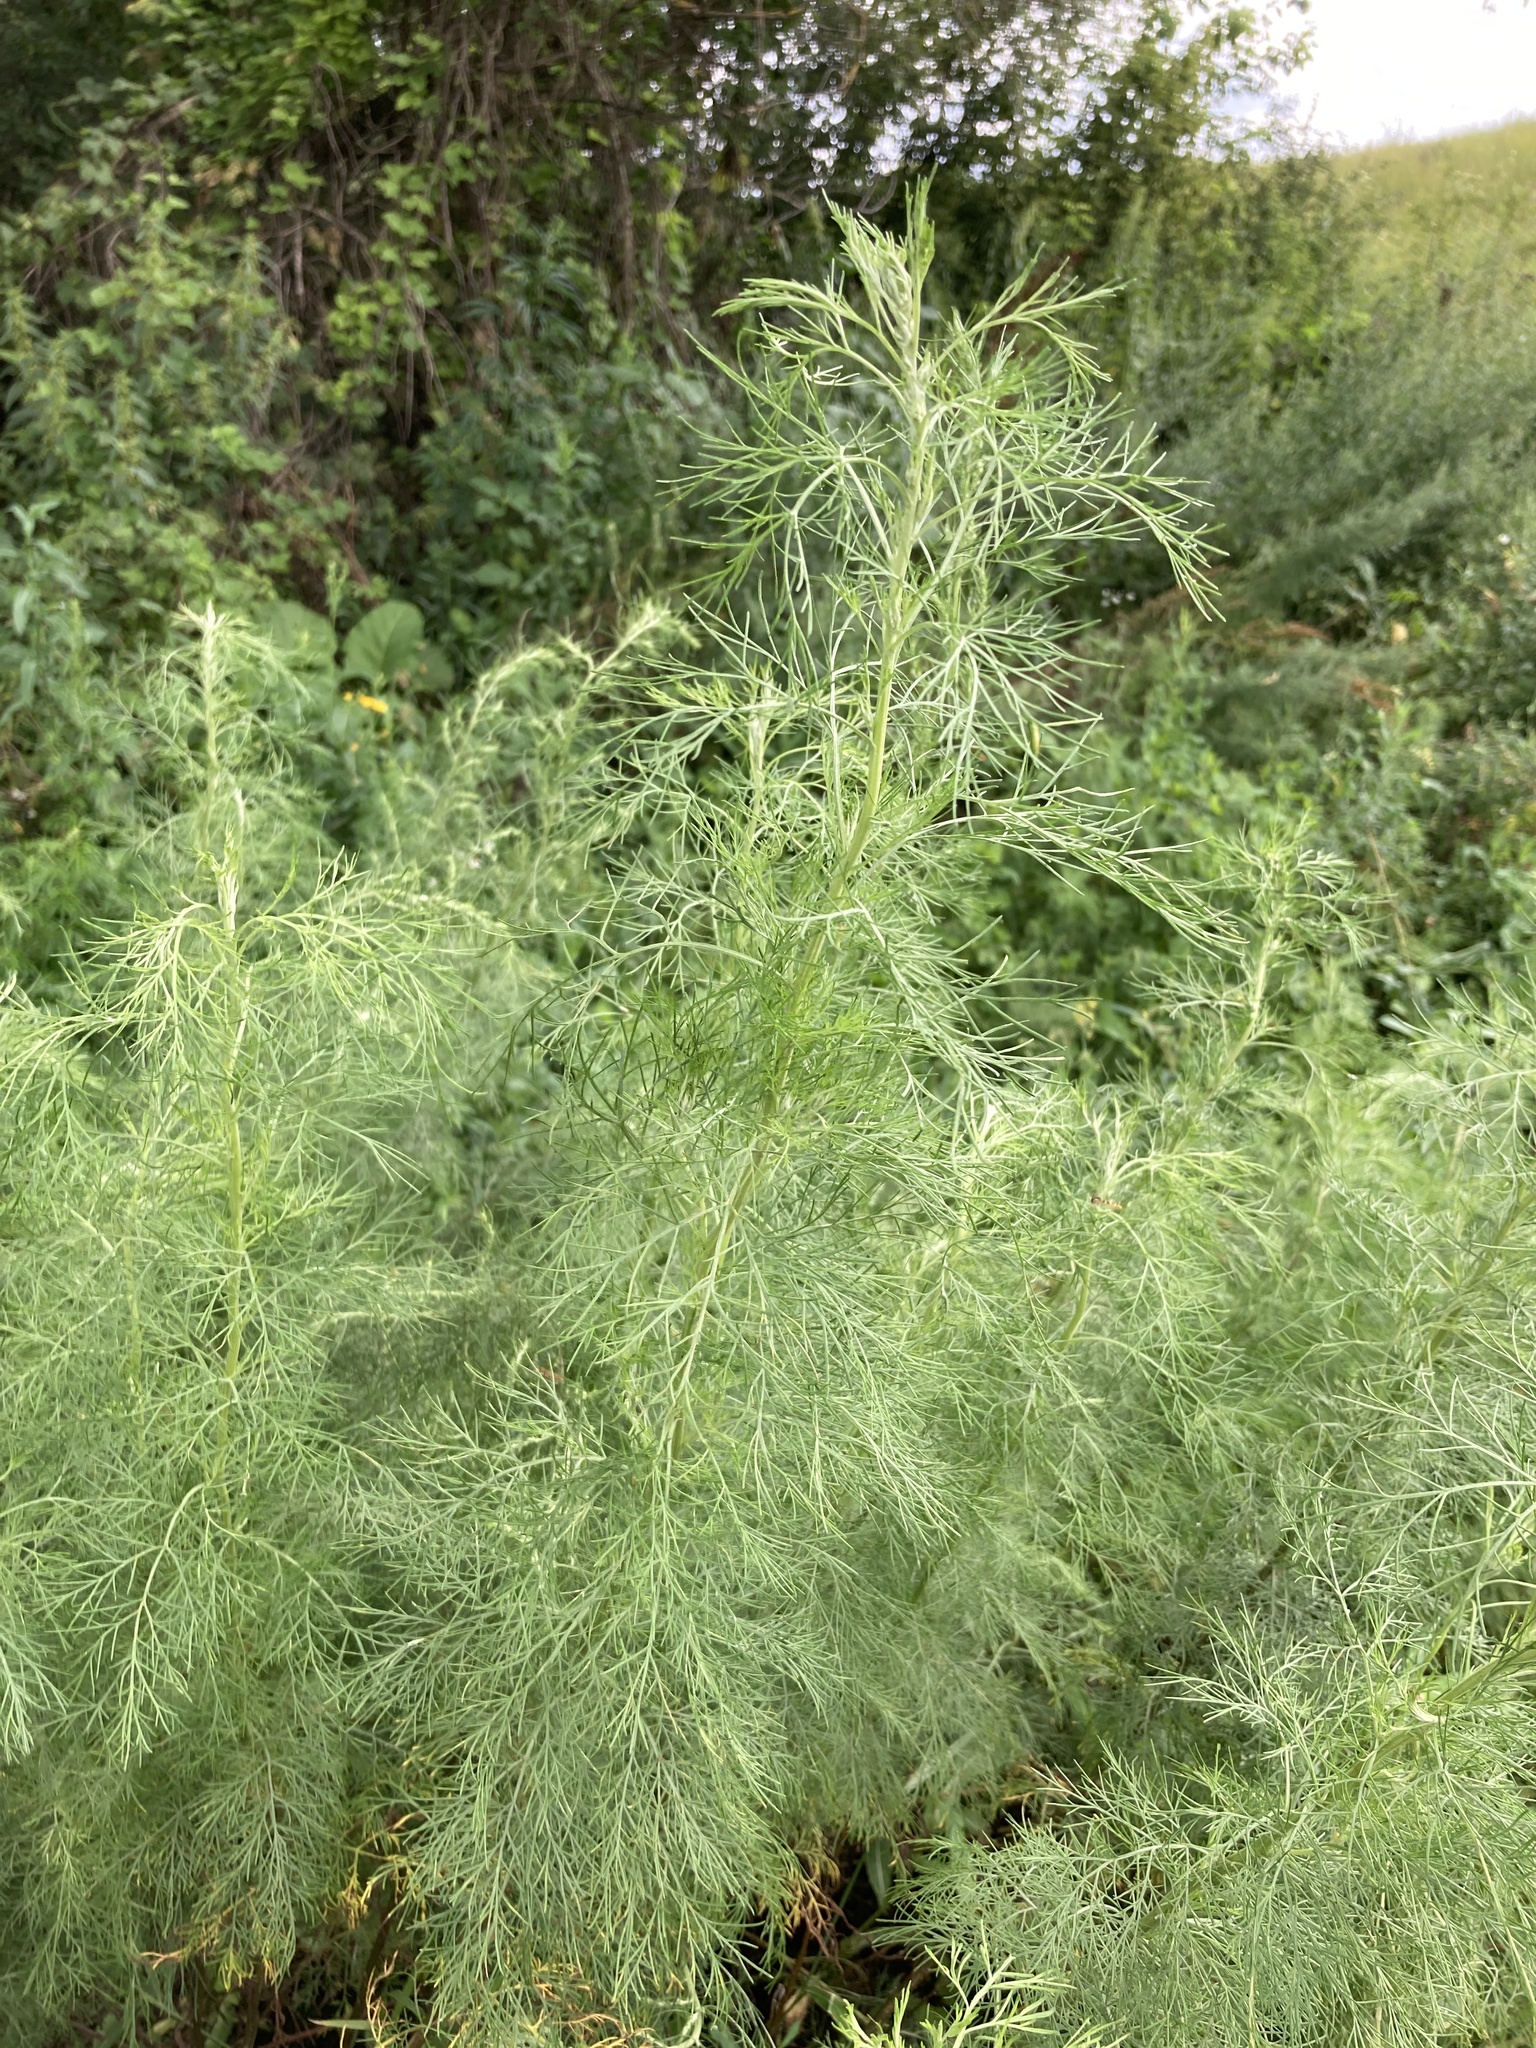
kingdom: Plantae
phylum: Tracheophyta
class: Magnoliopsida
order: Asterales
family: Asteraceae
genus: Artemisia
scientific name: Artemisia abrotanum
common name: Southernwood
